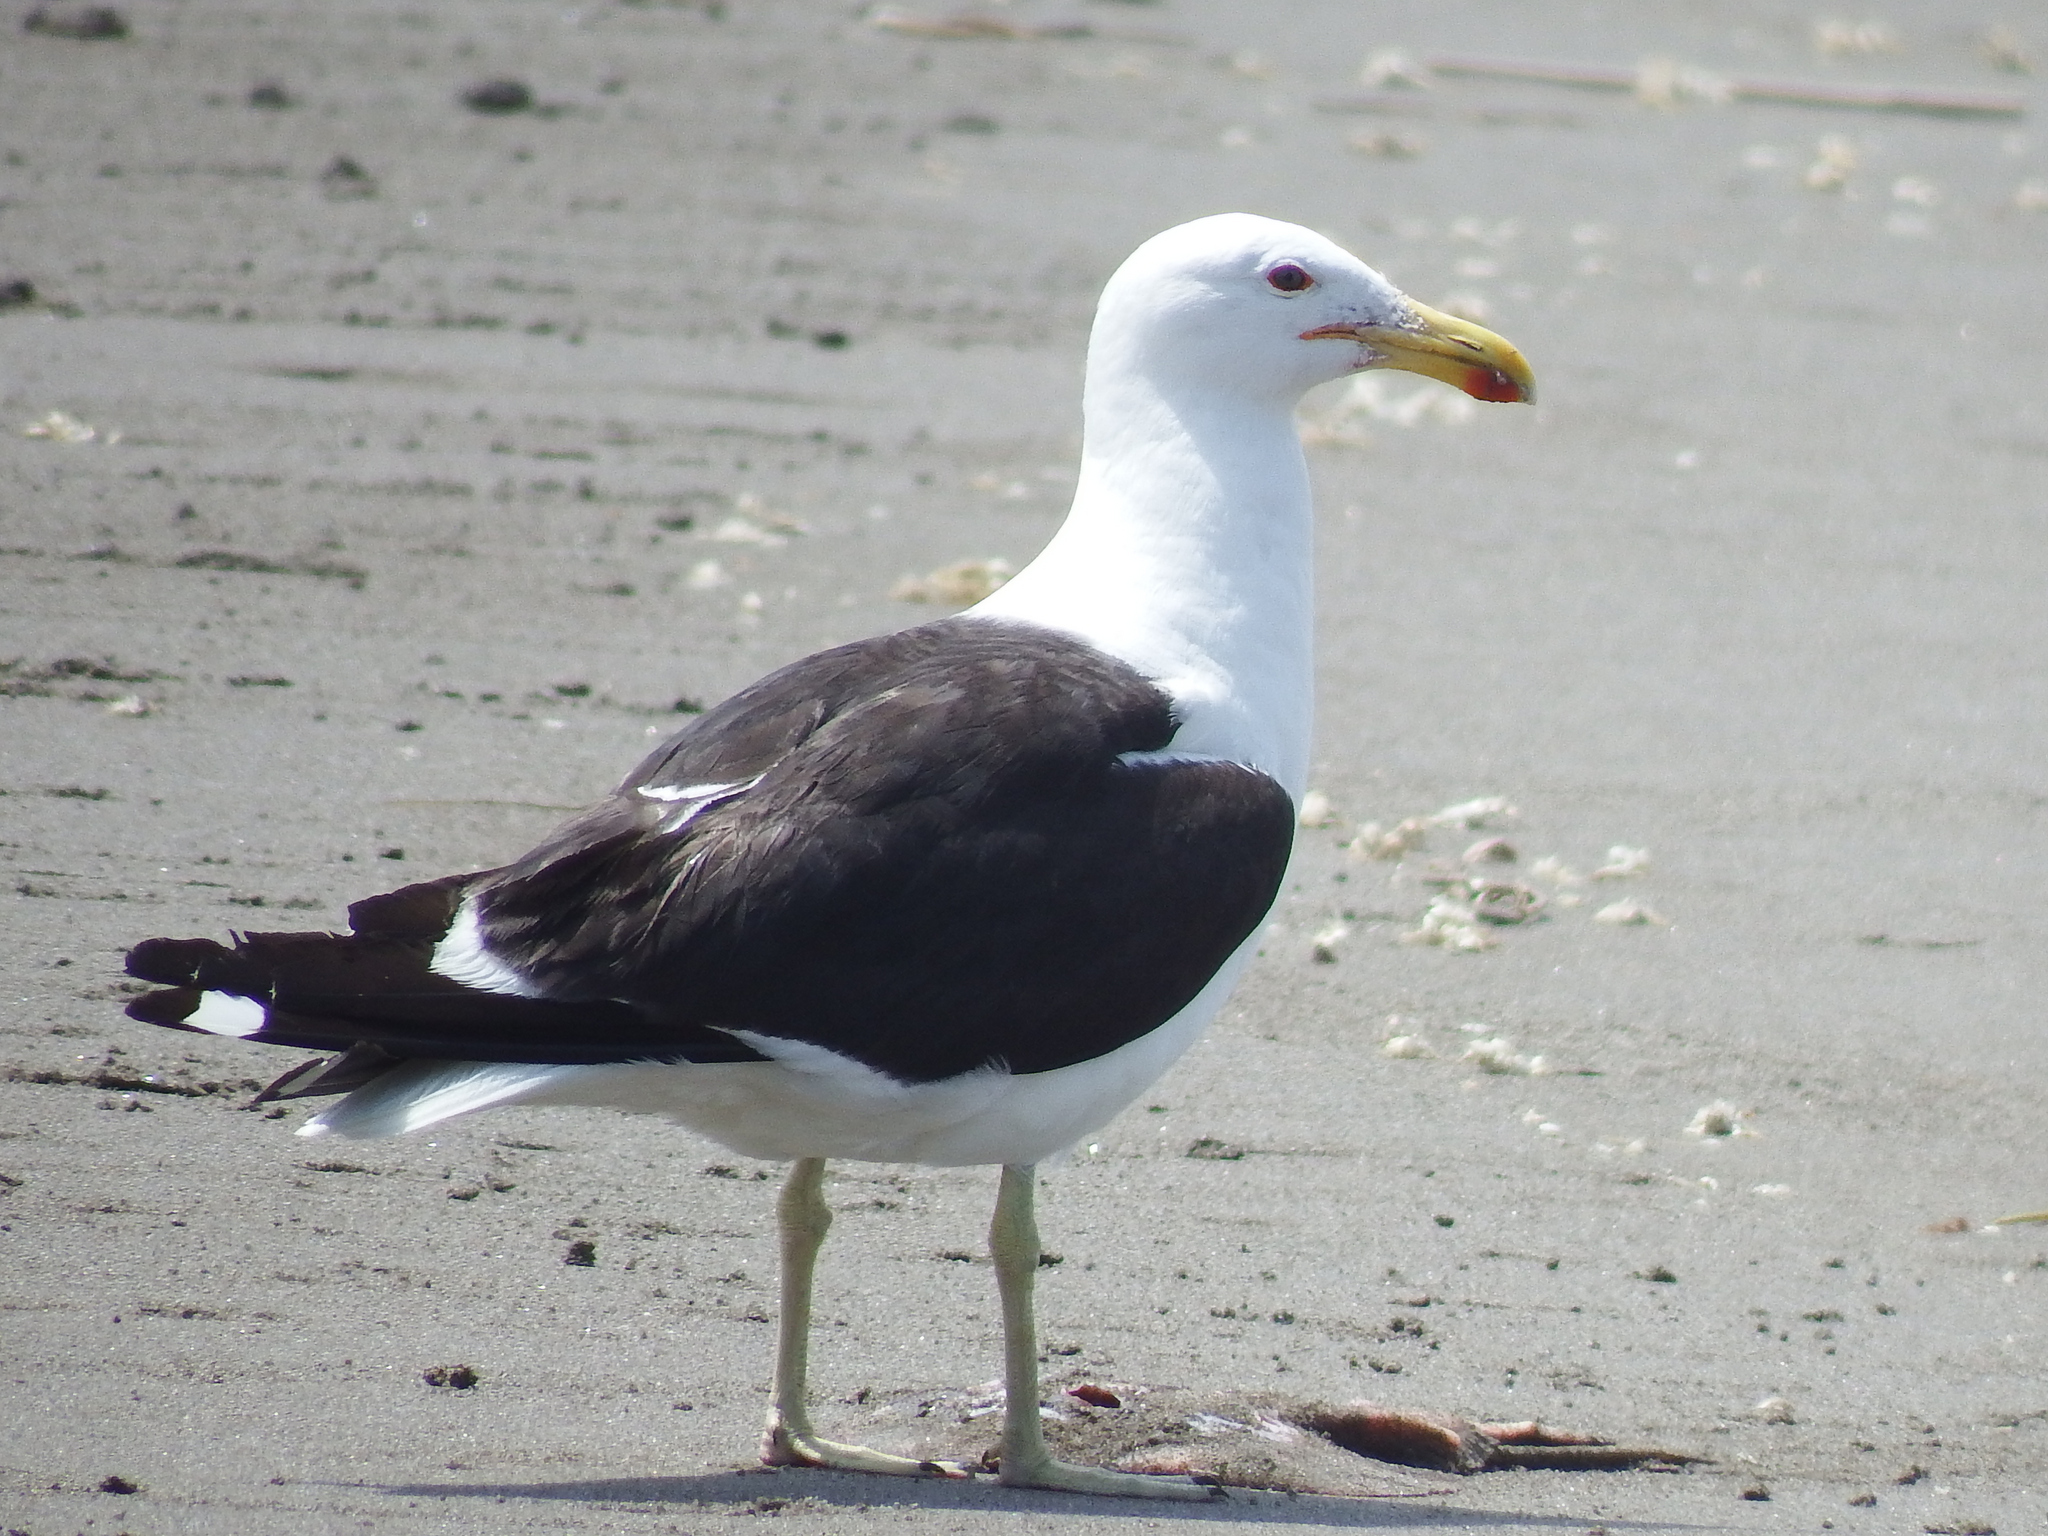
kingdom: Animalia
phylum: Chordata
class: Aves
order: Charadriiformes
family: Laridae
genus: Larus
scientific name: Larus dominicanus
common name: Kelp gull
